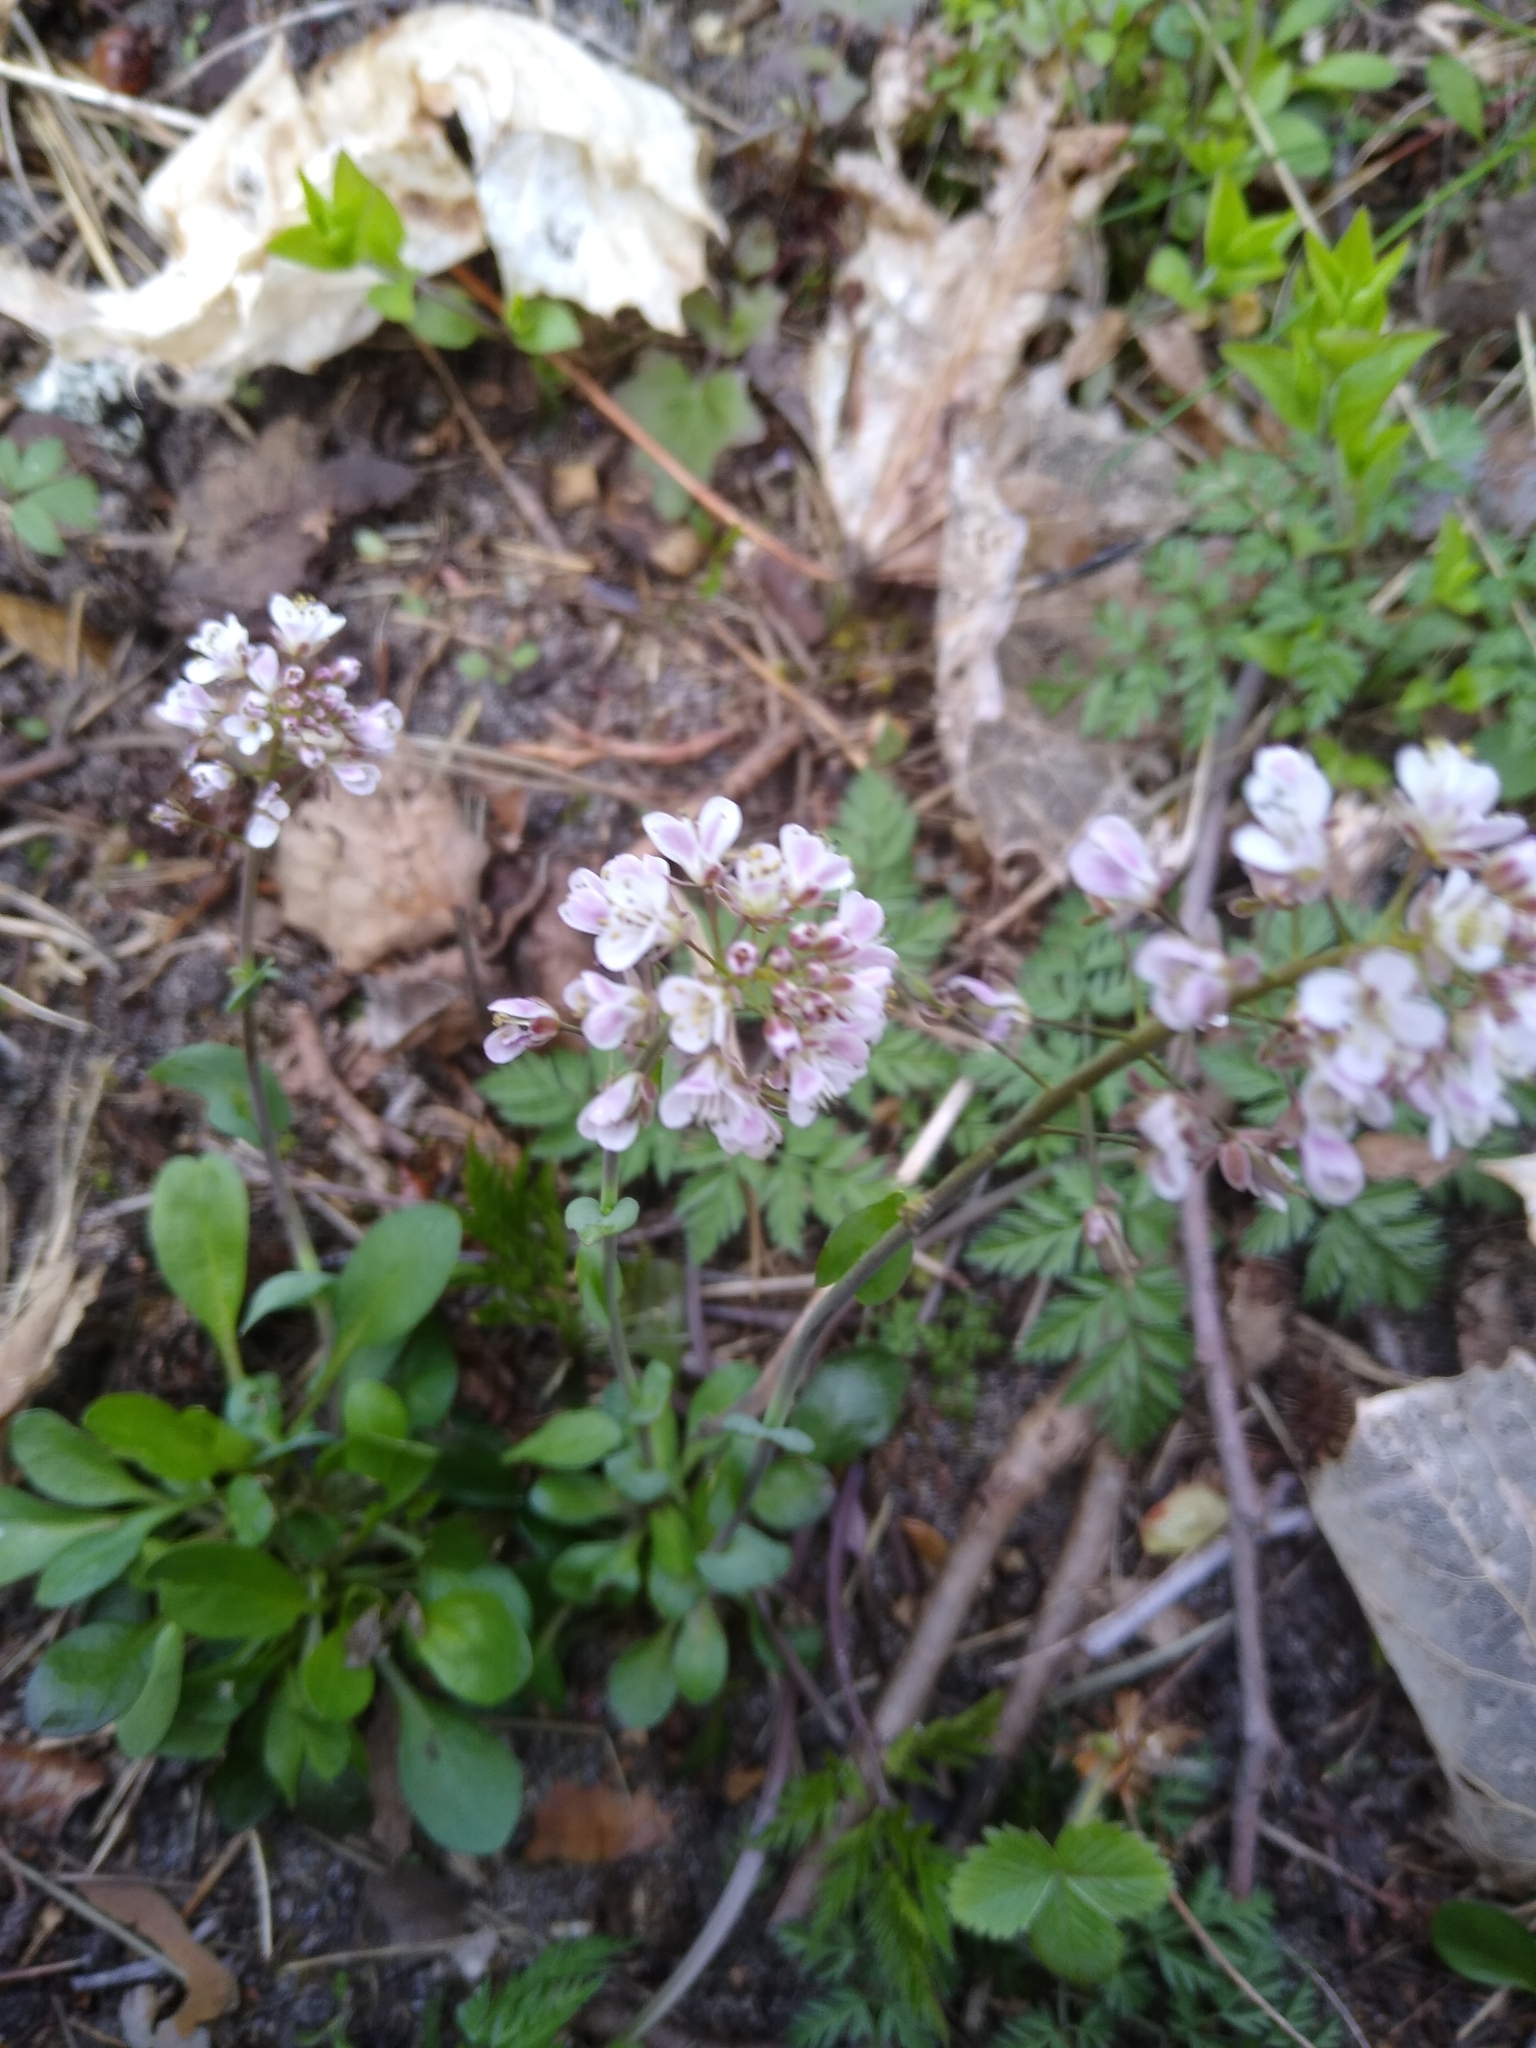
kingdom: Plantae
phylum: Tracheophyta
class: Magnoliopsida
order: Brassicales
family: Brassicaceae
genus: Noccaea
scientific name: Noccaea caerulescens
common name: Alpine pennycress
